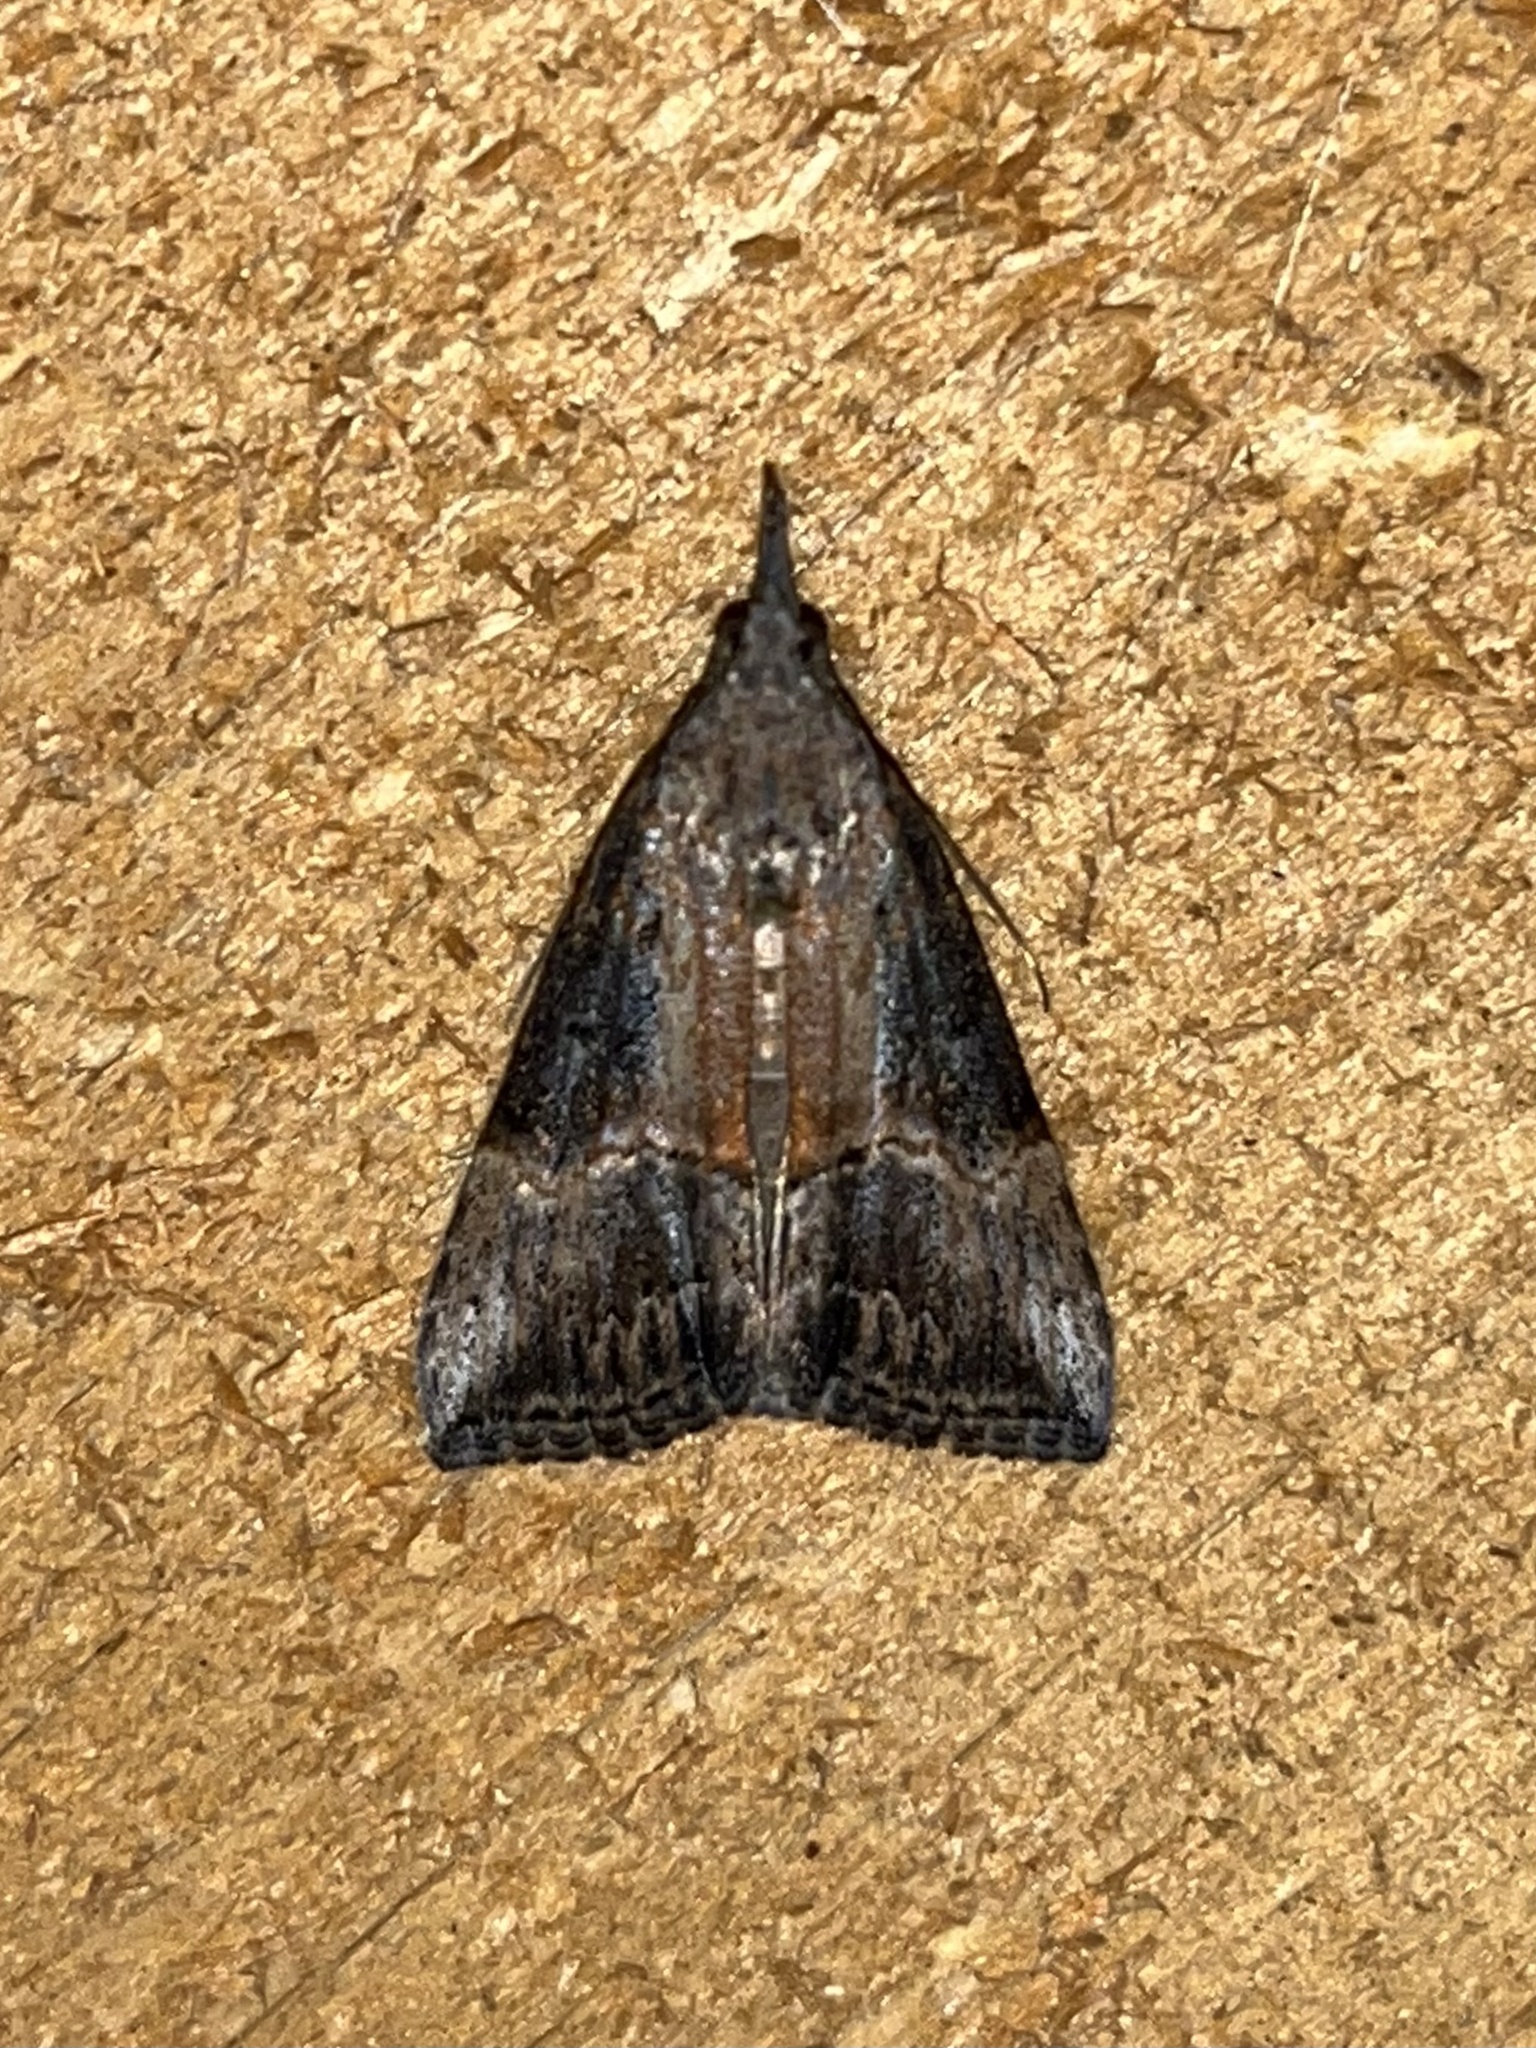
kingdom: Animalia
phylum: Arthropoda
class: Insecta
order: Lepidoptera
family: Erebidae
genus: Hypena
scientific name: Hypena scabra
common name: Green cloverworm
